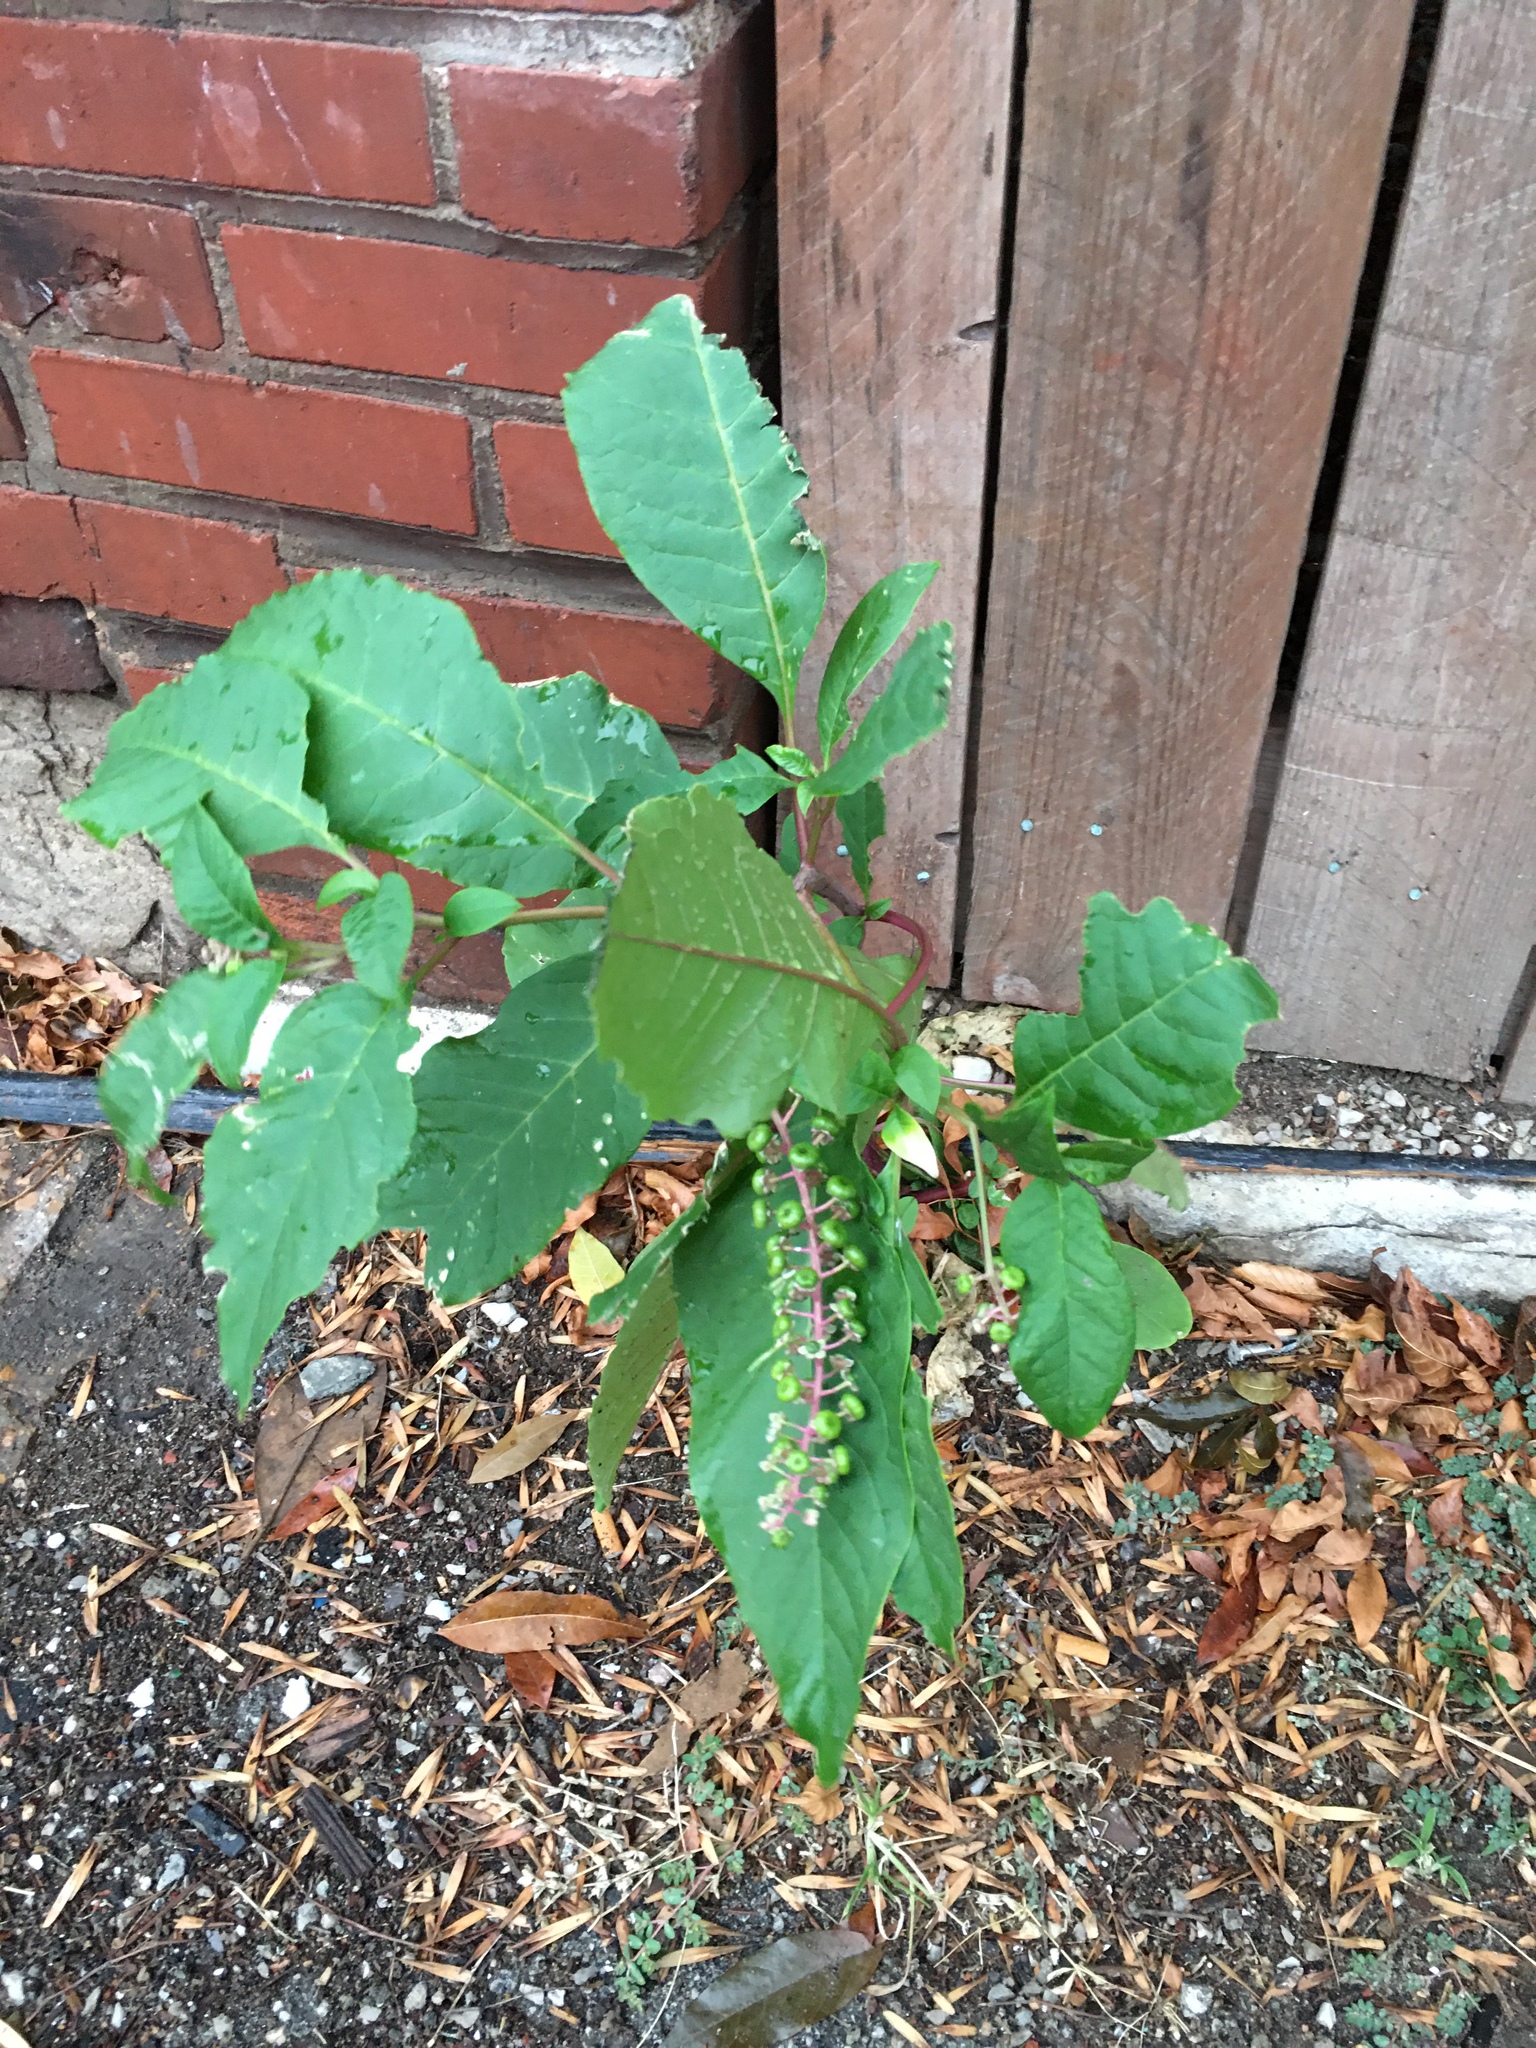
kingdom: Plantae
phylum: Tracheophyta
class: Magnoliopsida
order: Caryophyllales
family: Phytolaccaceae
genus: Phytolacca
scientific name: Phytolacca americana
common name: American pokeweed
